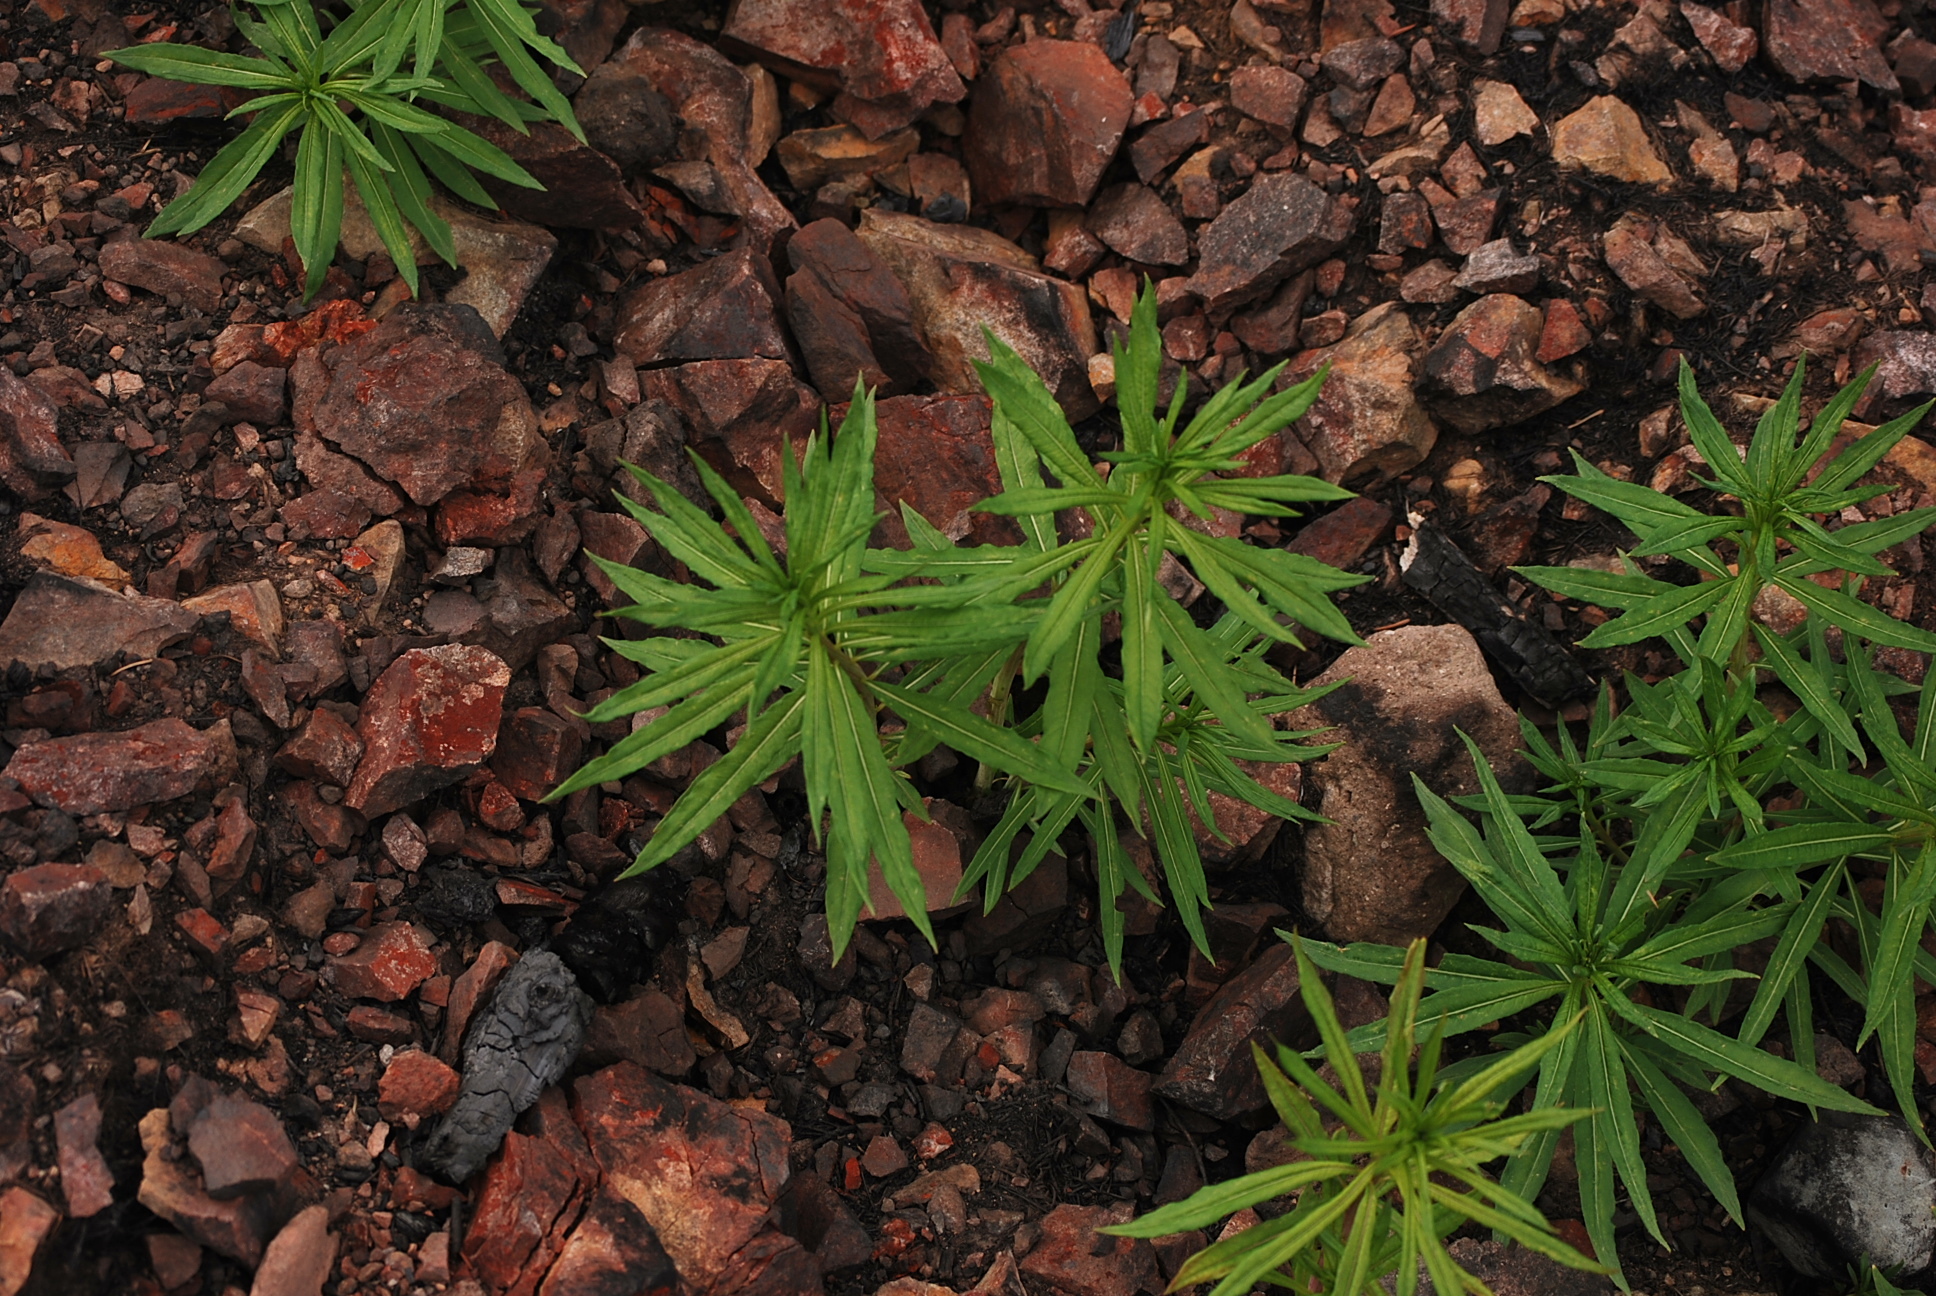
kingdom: Plantae
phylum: Tracheophyta
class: Magnoliopsida
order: Myrtales
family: Onagraceae
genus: Chamaenerion
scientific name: Chamaenerion angustifolium
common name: Fireweed
